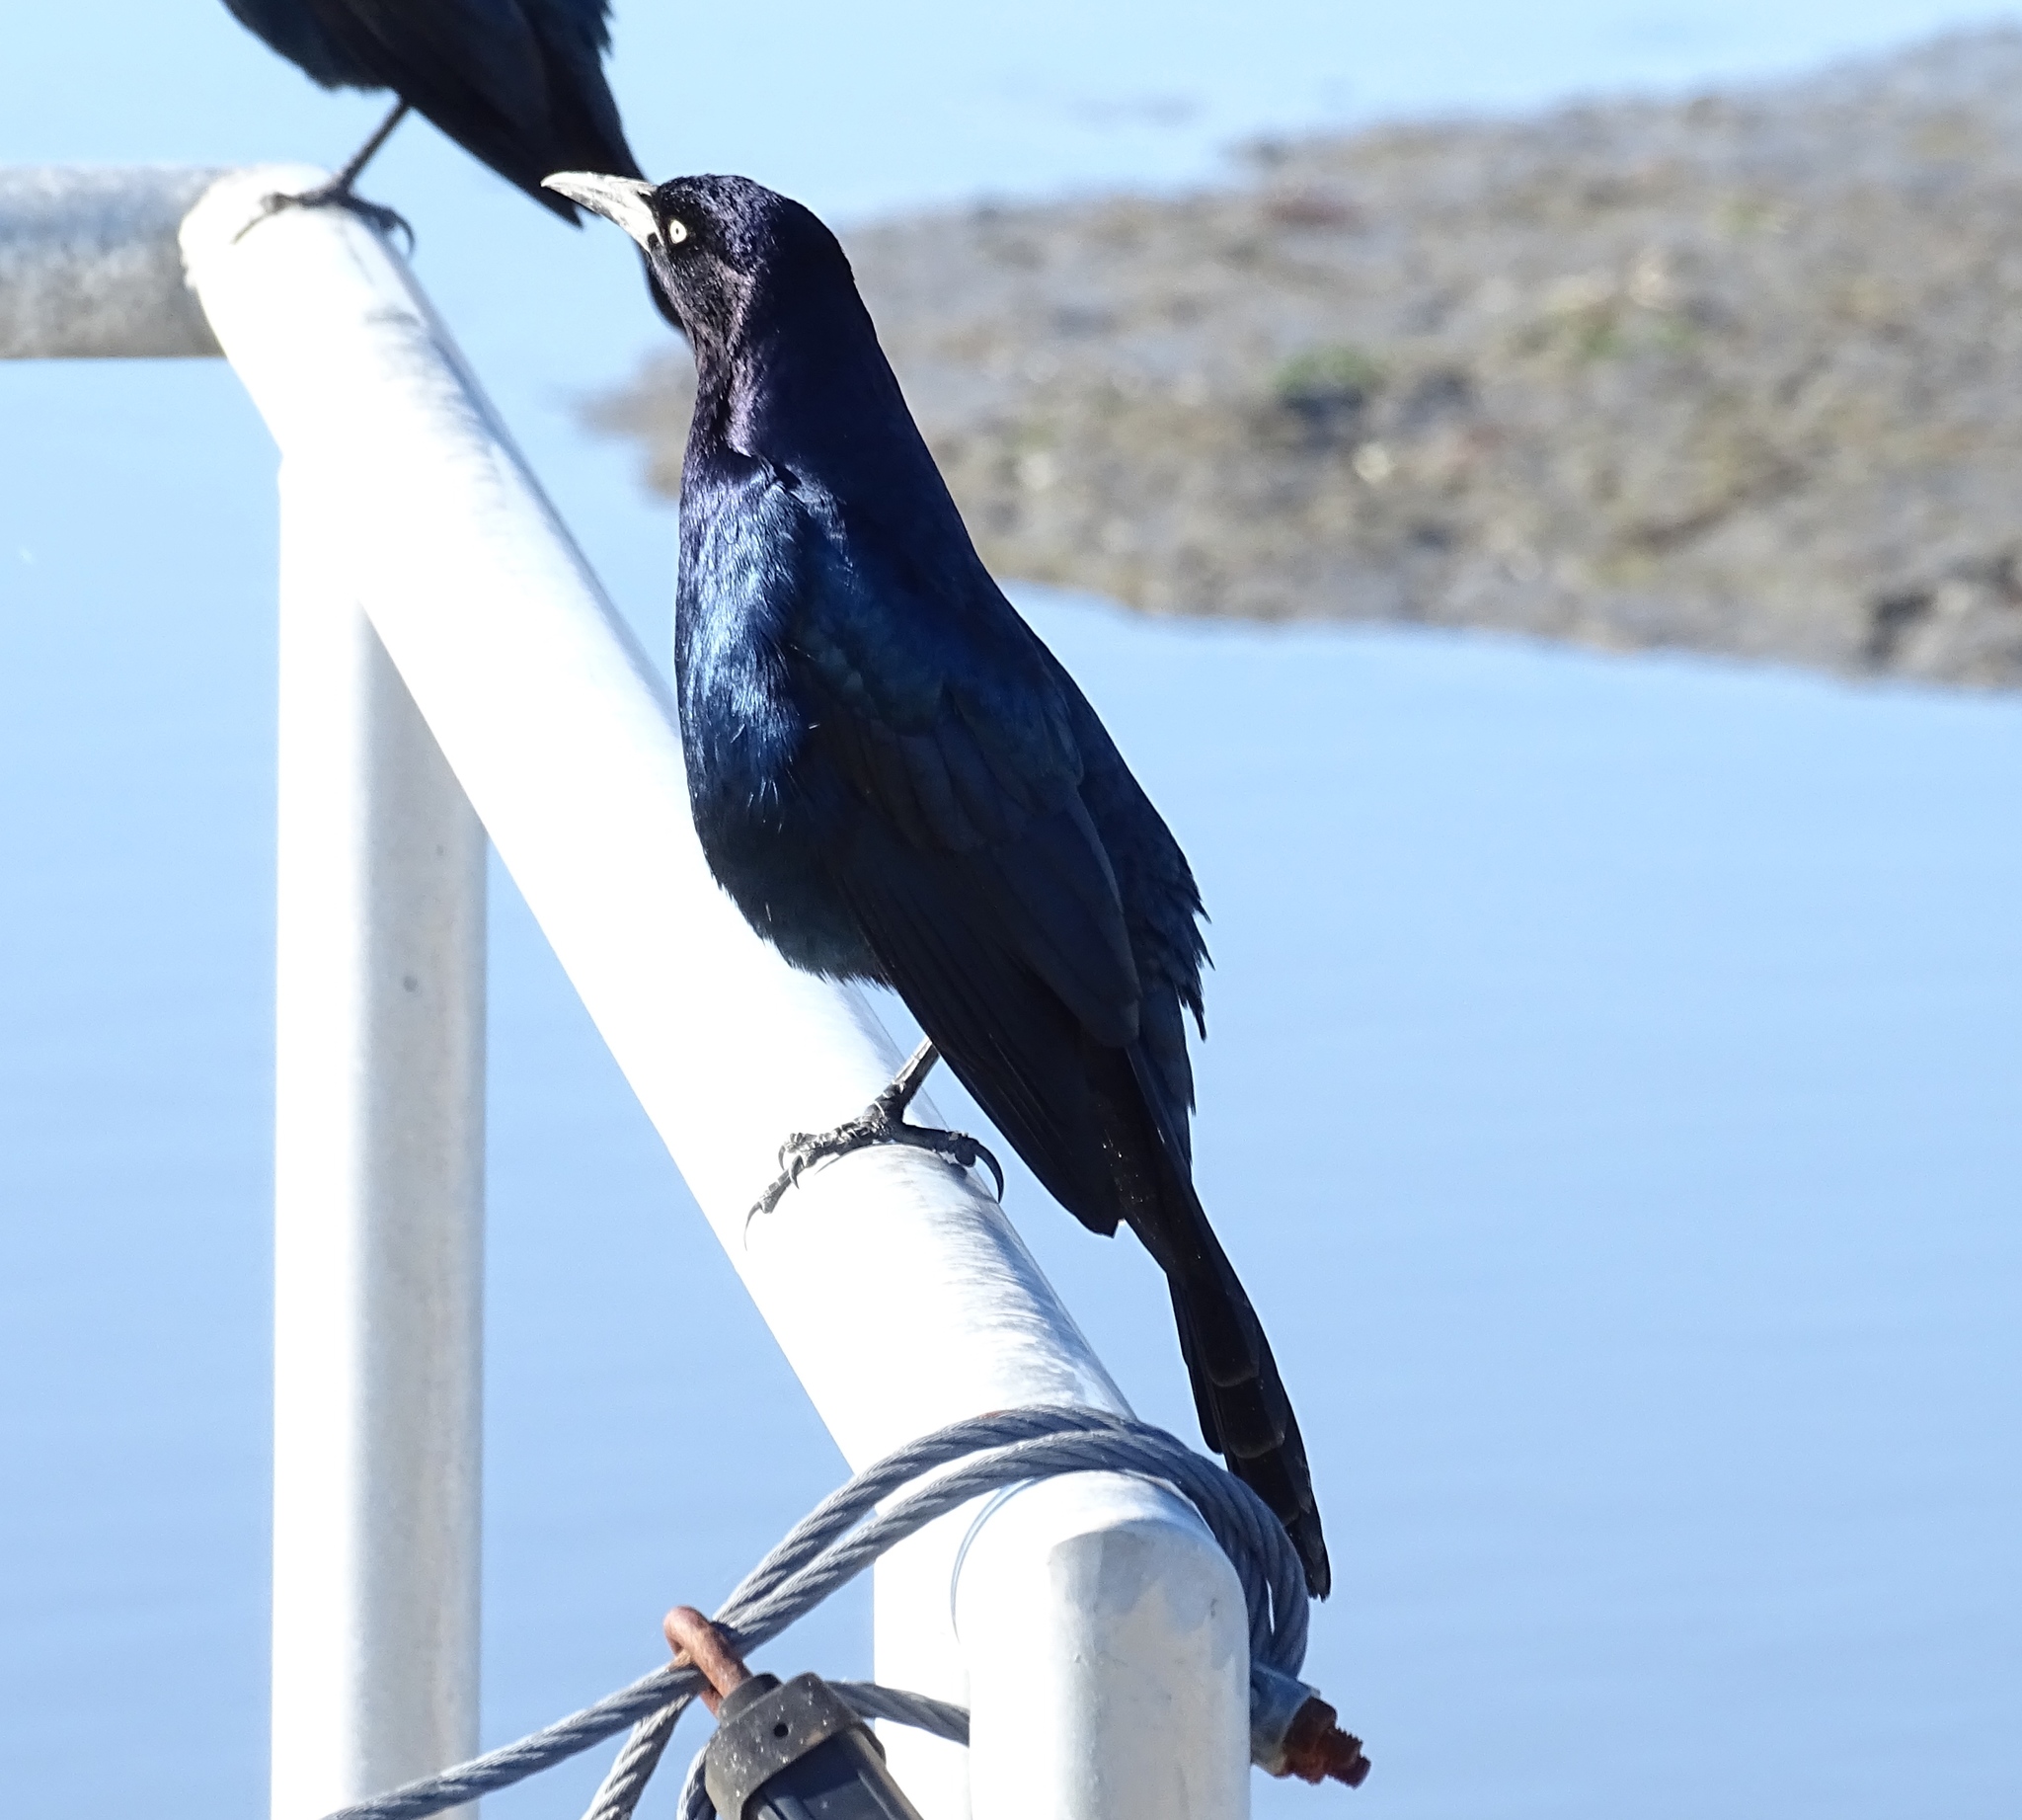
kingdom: Animalia
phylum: Chordata
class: Aves
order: Passeriformes
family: Icteridae
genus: Quiscalus
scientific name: Quiscalus major
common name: Boat-tailed grackle
